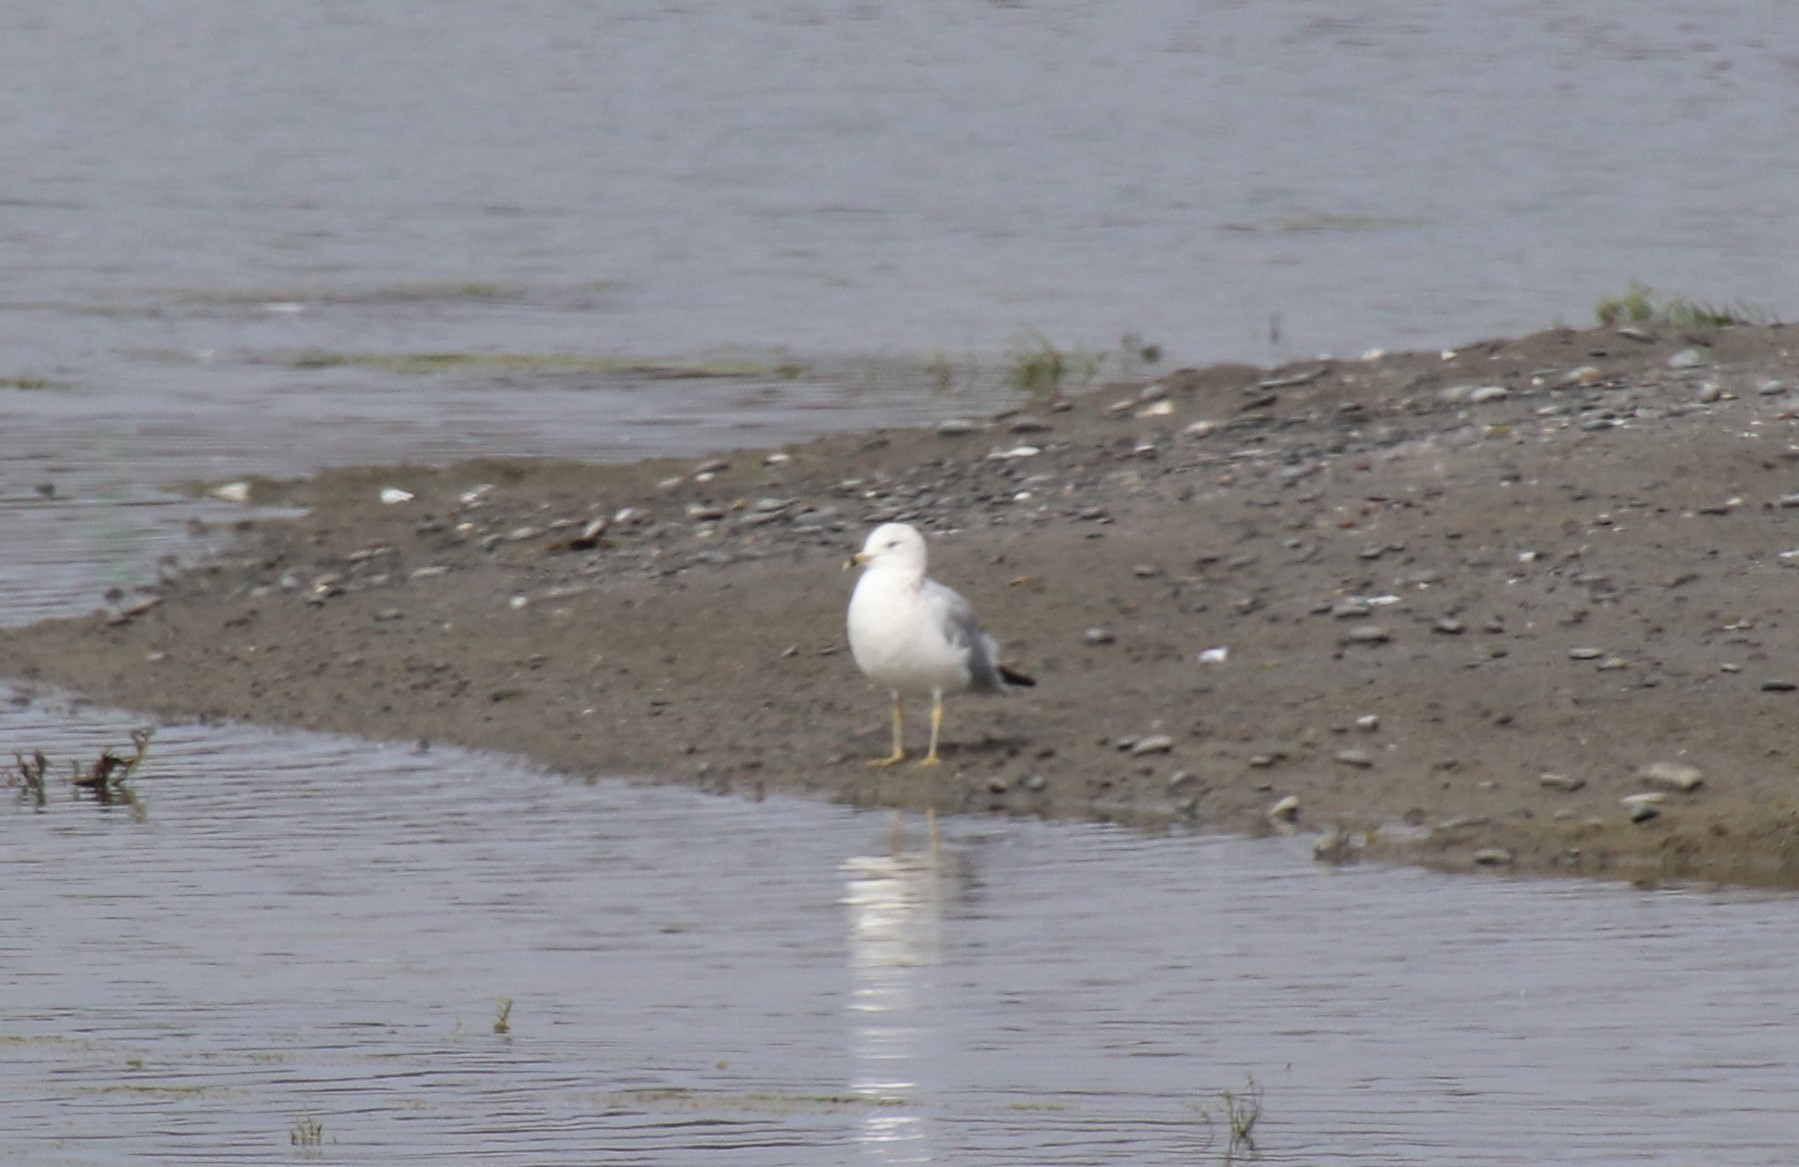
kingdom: Animalia
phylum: Chordata
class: Aves
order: Charadriiformes
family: Laridae
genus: Larus
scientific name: Larus delawarensis
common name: Ring-billed gull
